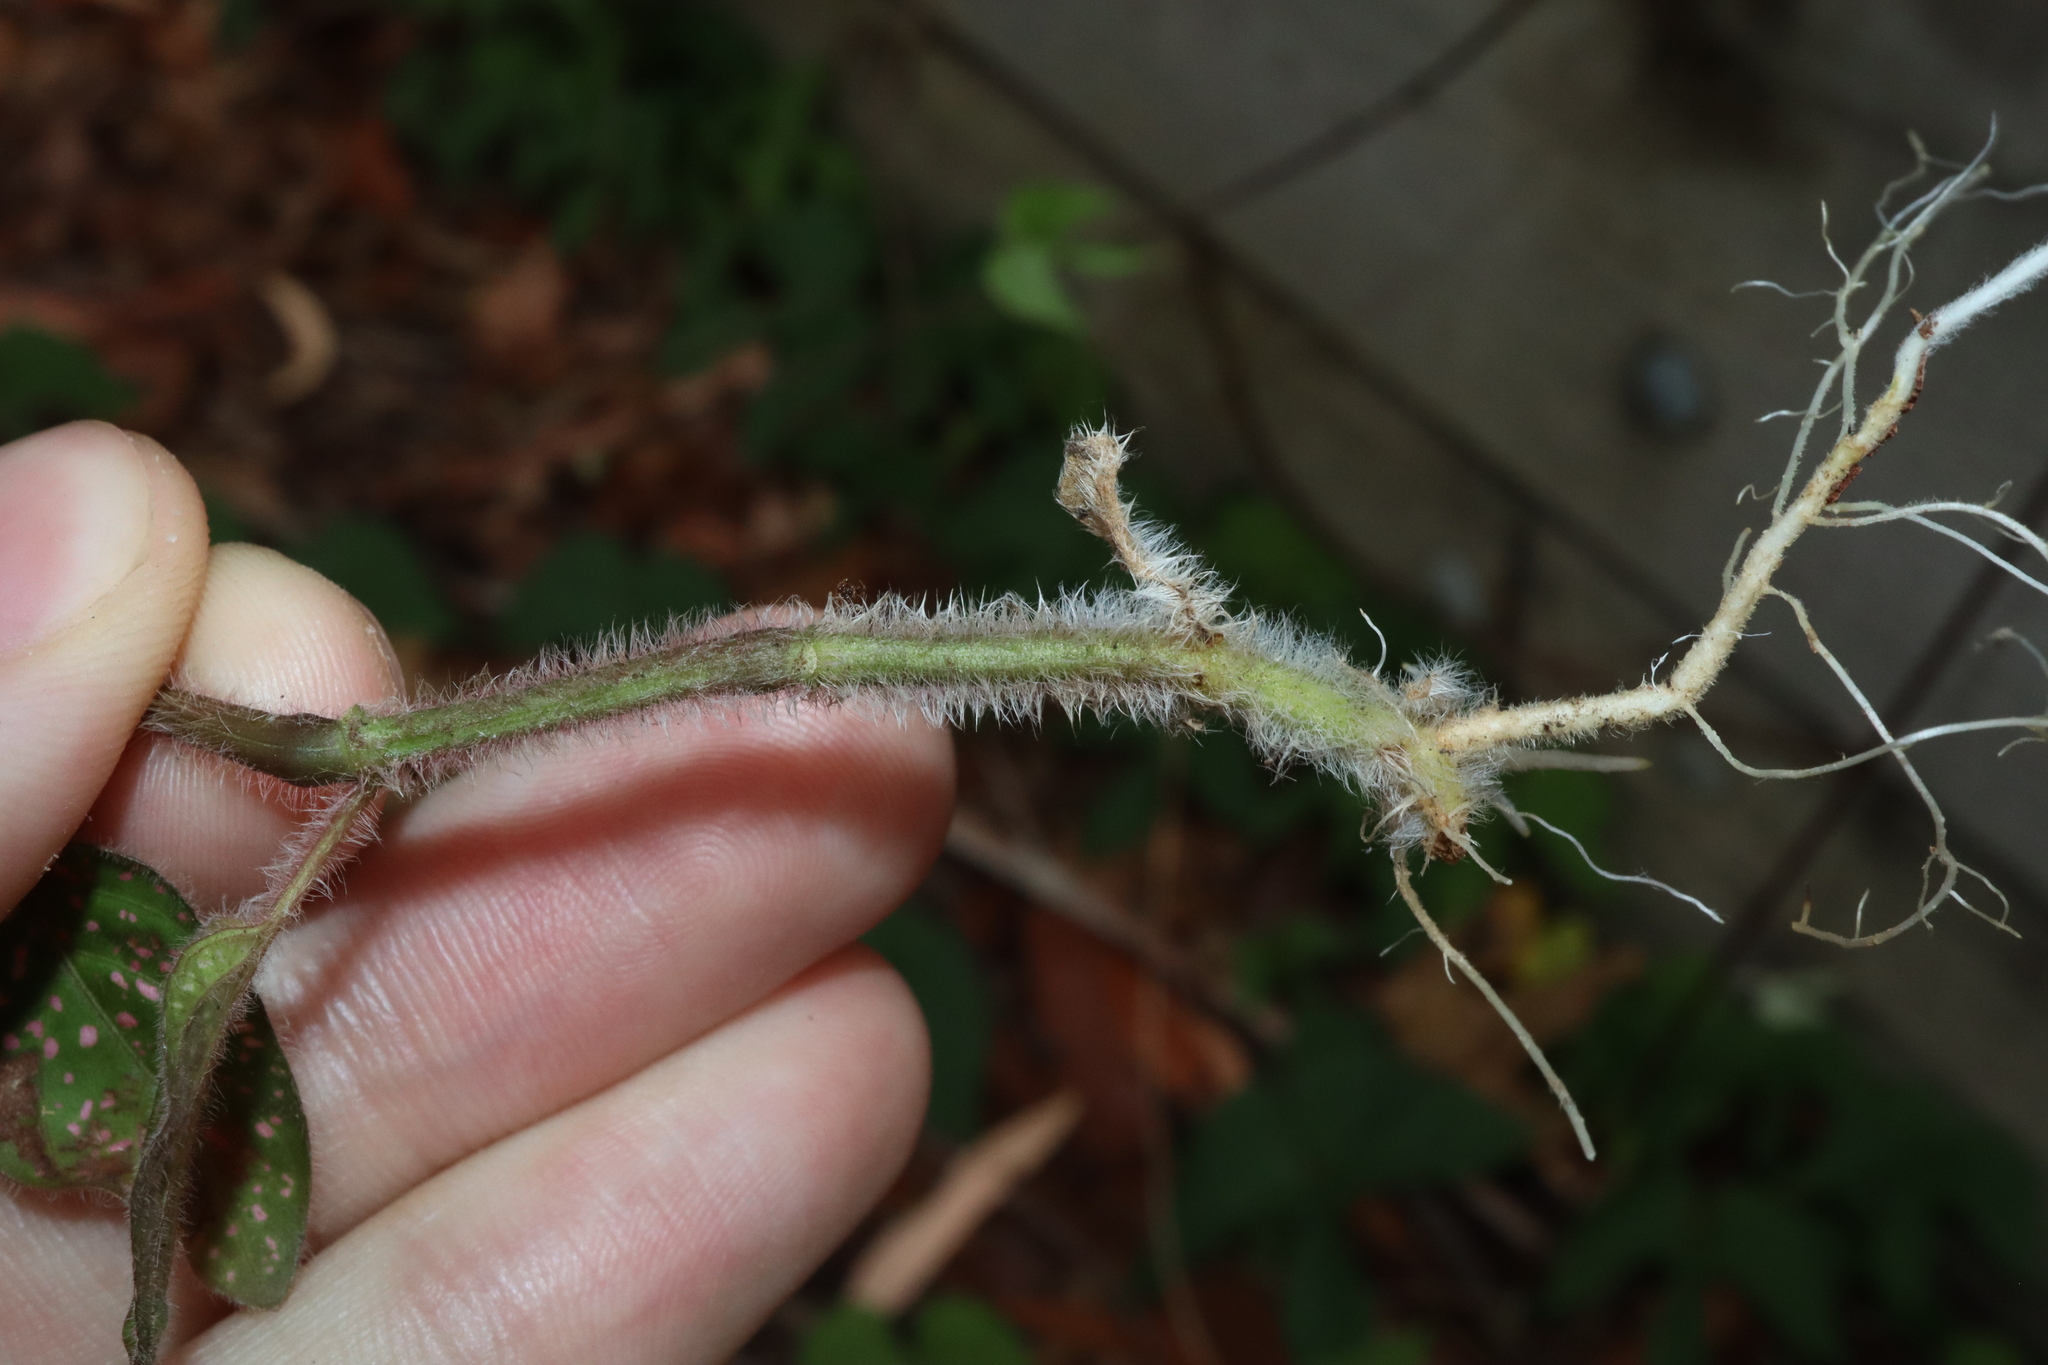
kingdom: Plantae
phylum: Tracheophyta
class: Magnoliopsida
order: Lamiales
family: Acanthaceae
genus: Hypoestes
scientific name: Hypoestes phyllostachya
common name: Polkadot-plant
